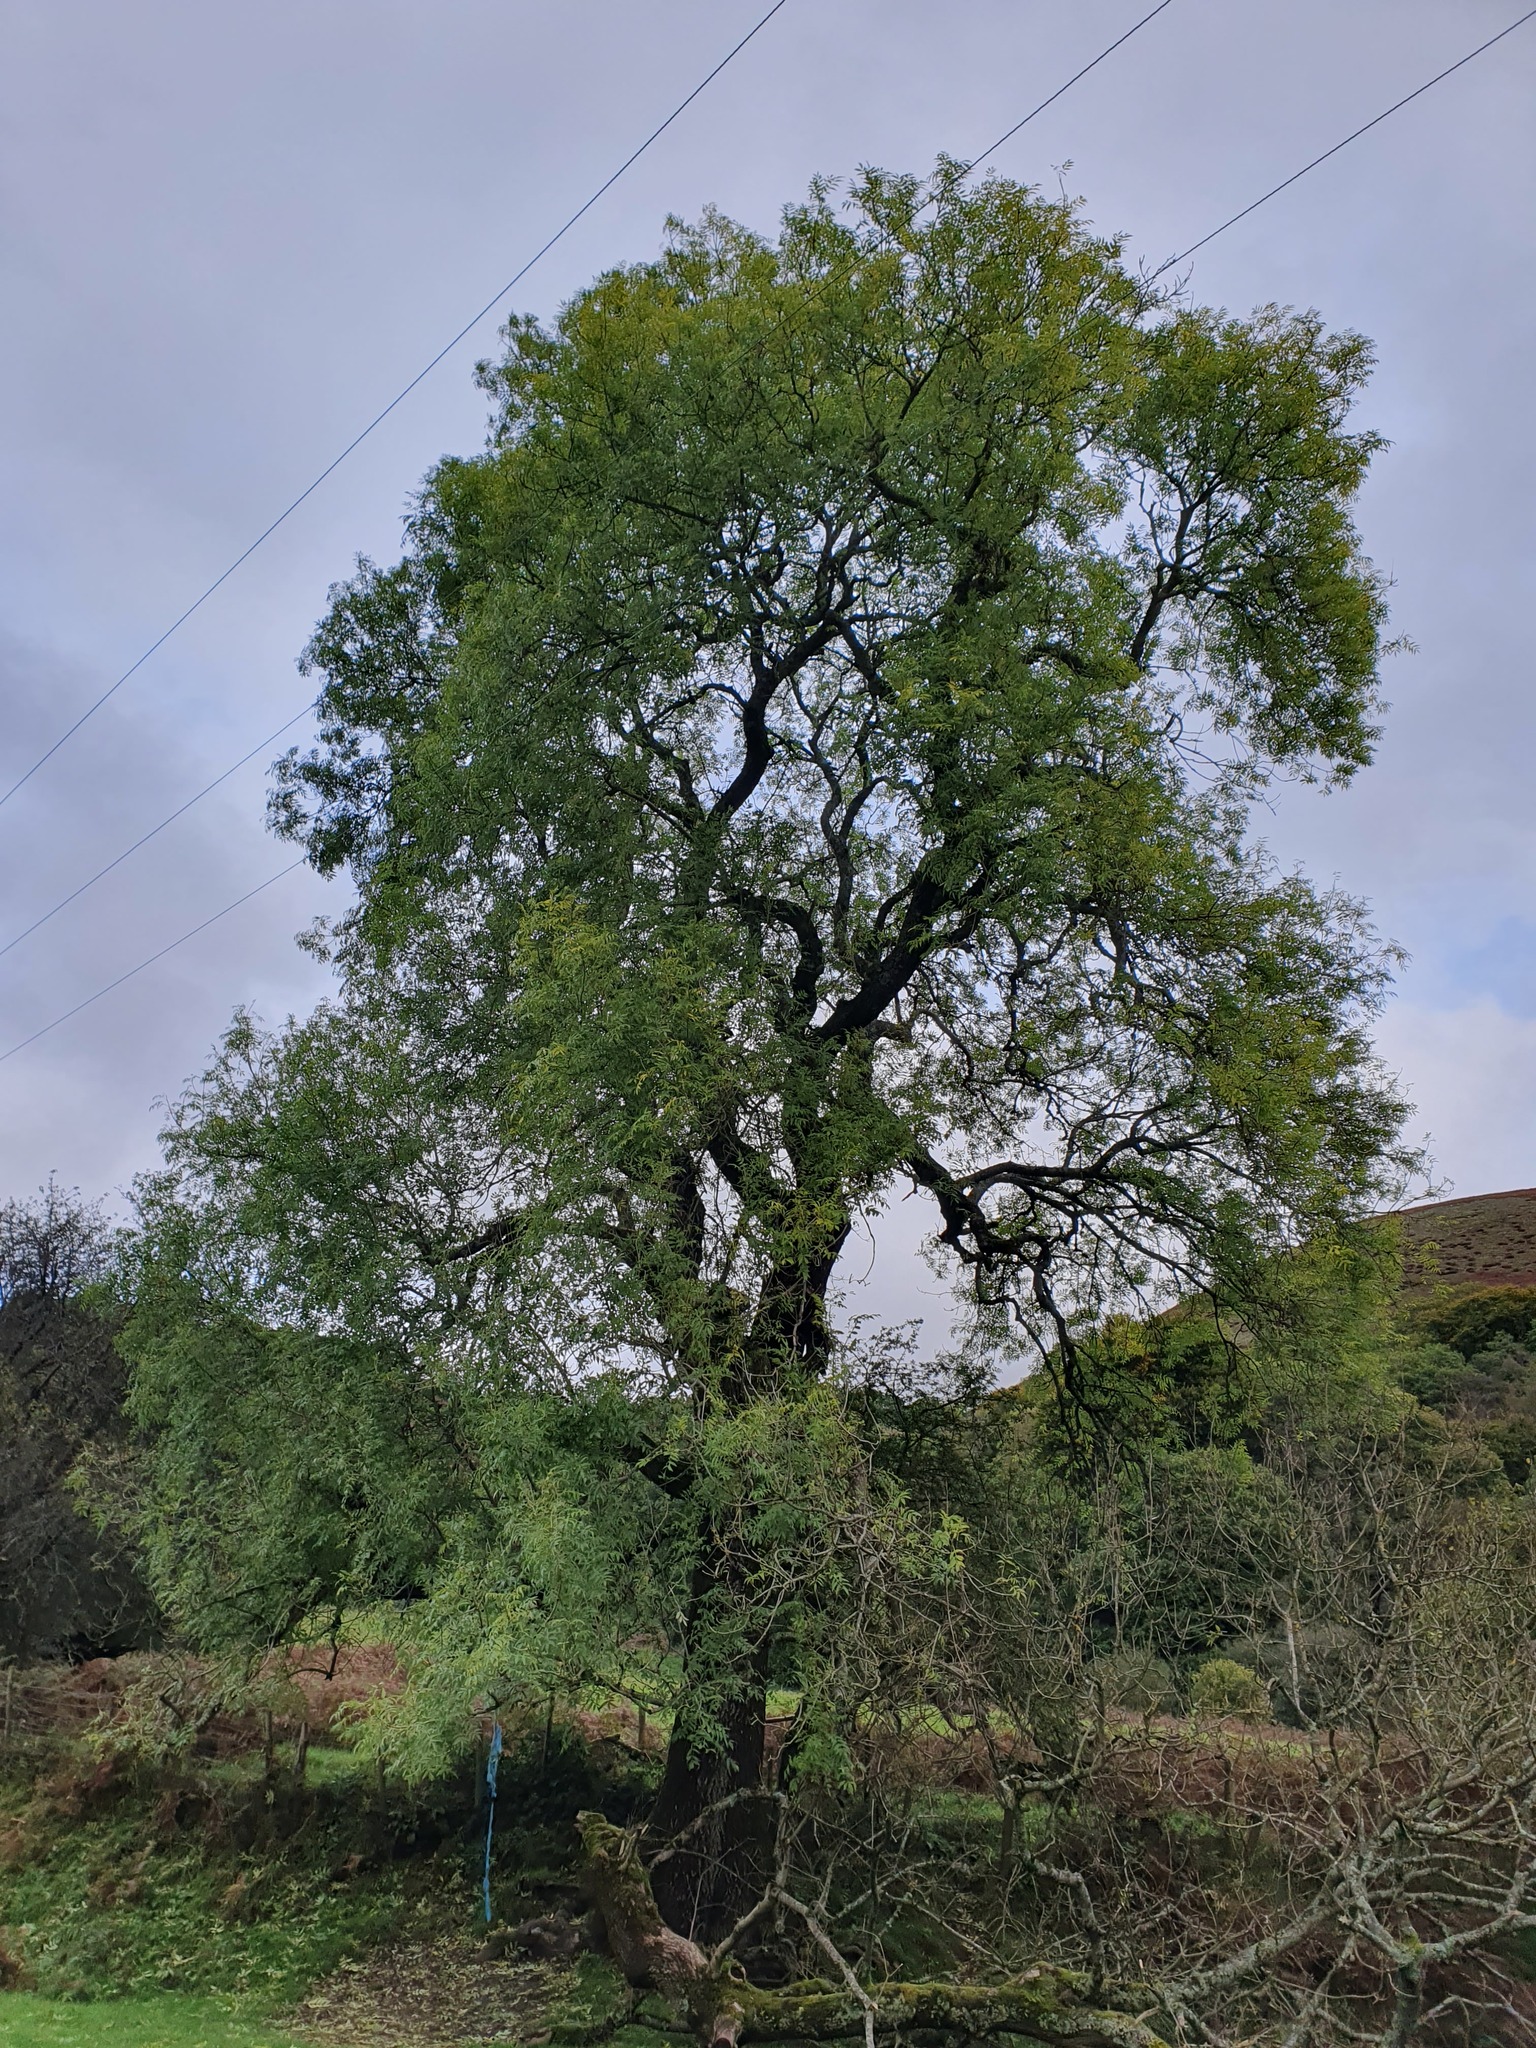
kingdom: Plantae
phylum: Tracheophyta
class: Magnoliopsida
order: Lamiales
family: Oleaceae
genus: Fraxinus
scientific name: Fraxinus excelsior
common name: European ash
